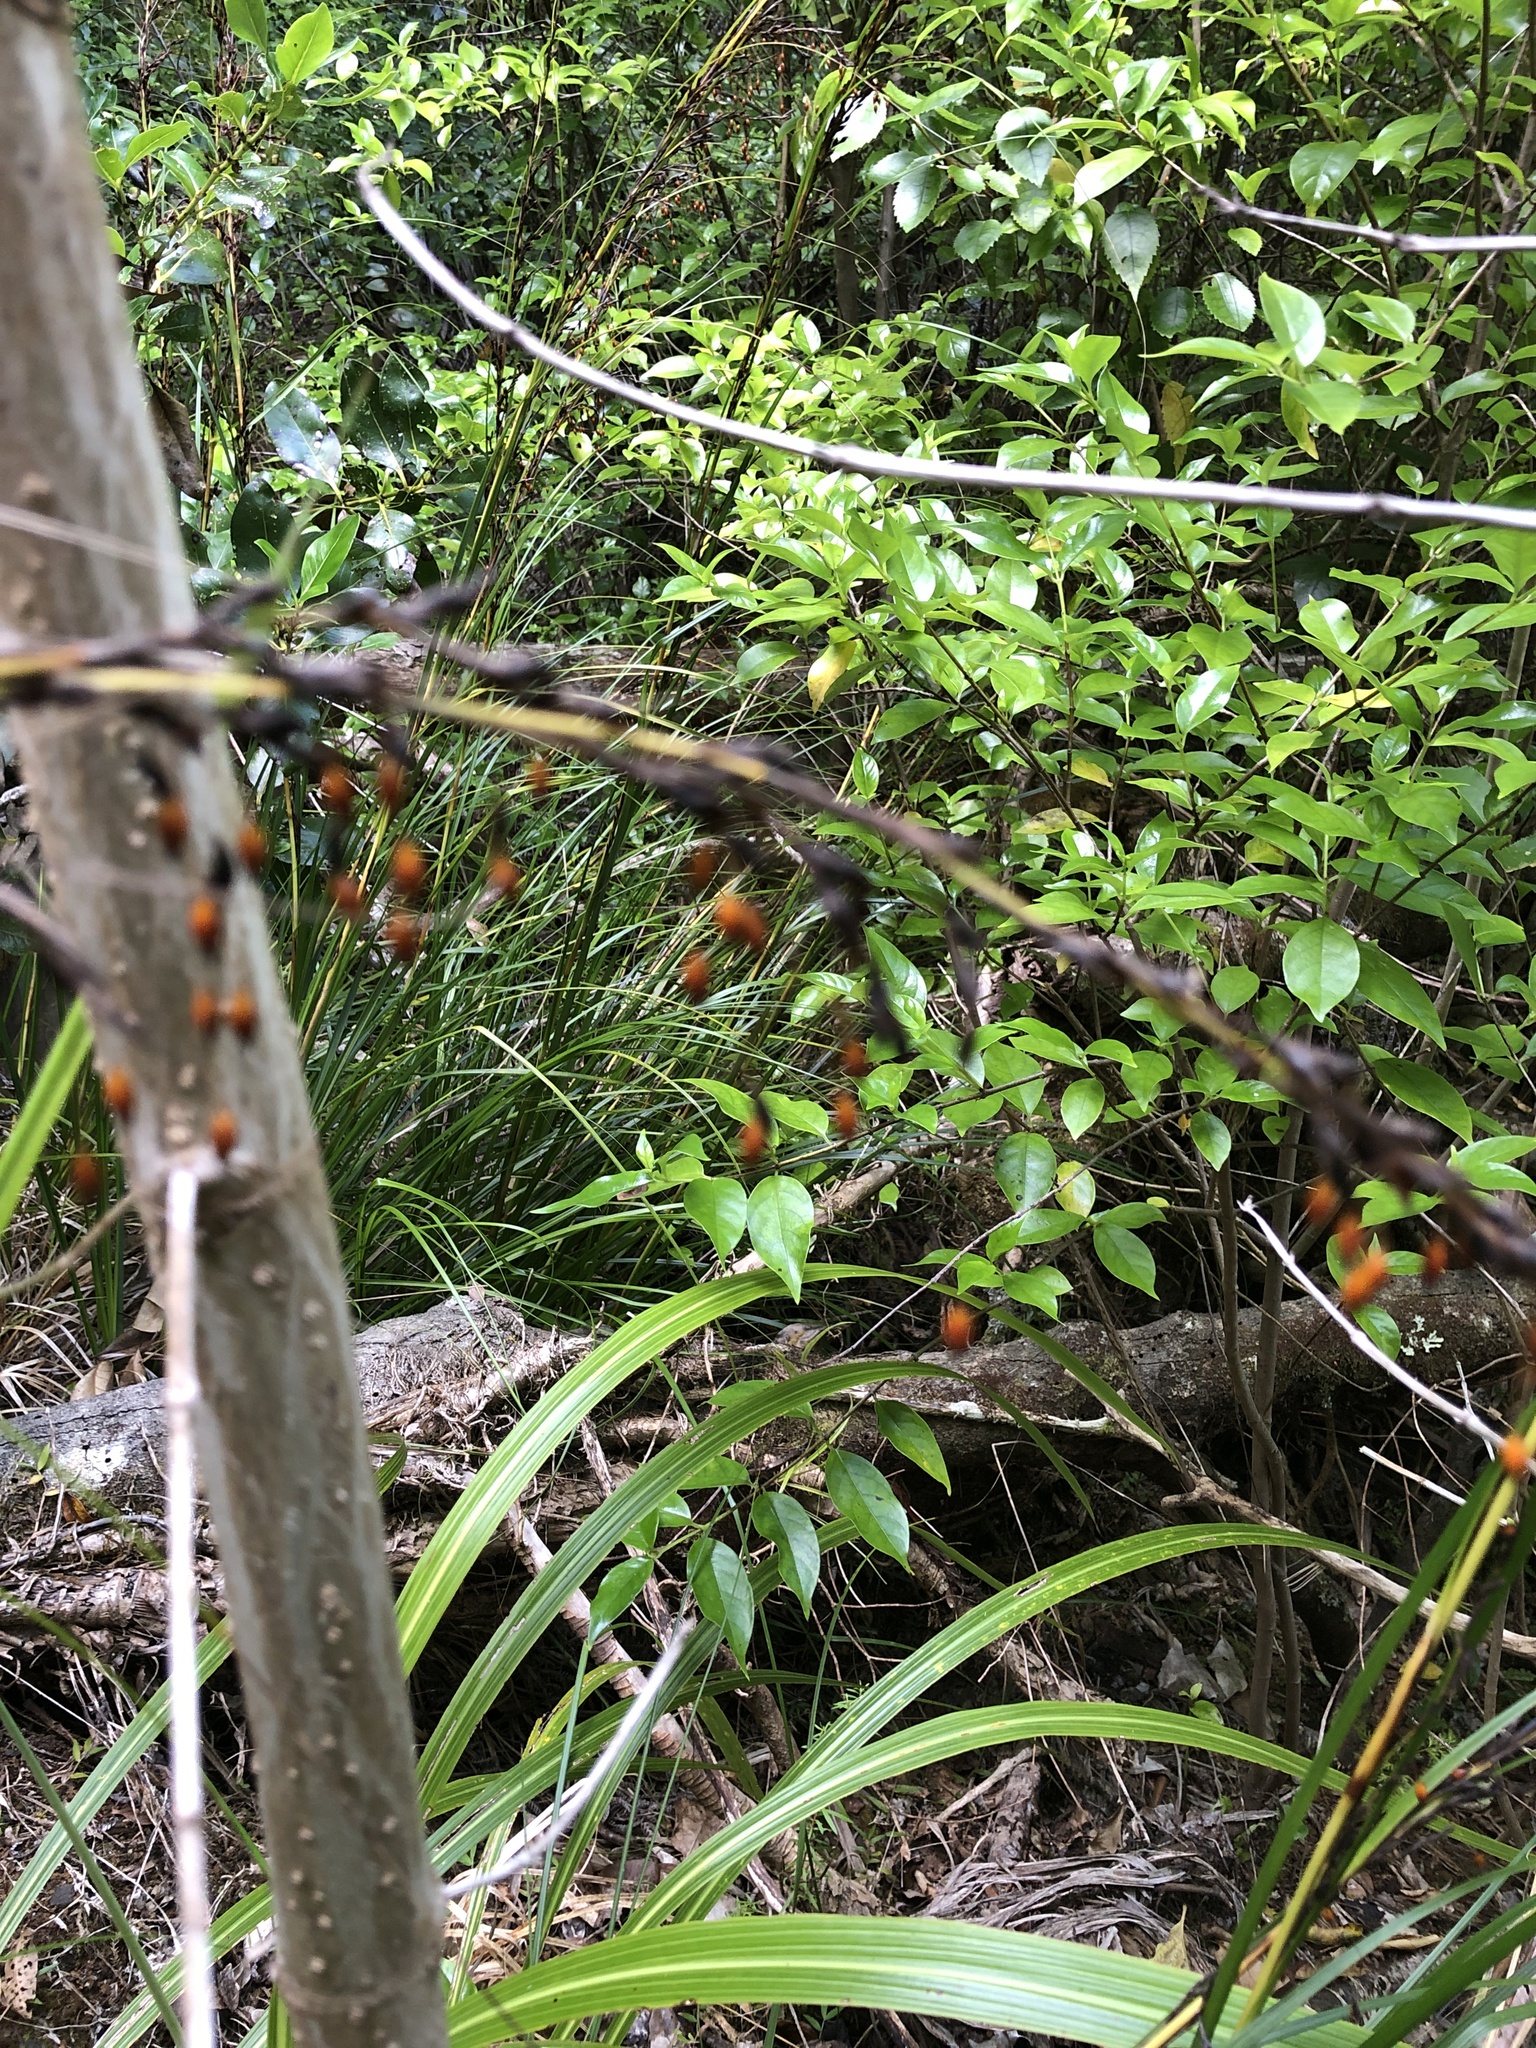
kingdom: Plantae
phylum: Tracheophyta
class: Liliopsida
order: Poales
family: Cyperaceae
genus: Gahnia
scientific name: Gahnia pauciflora
